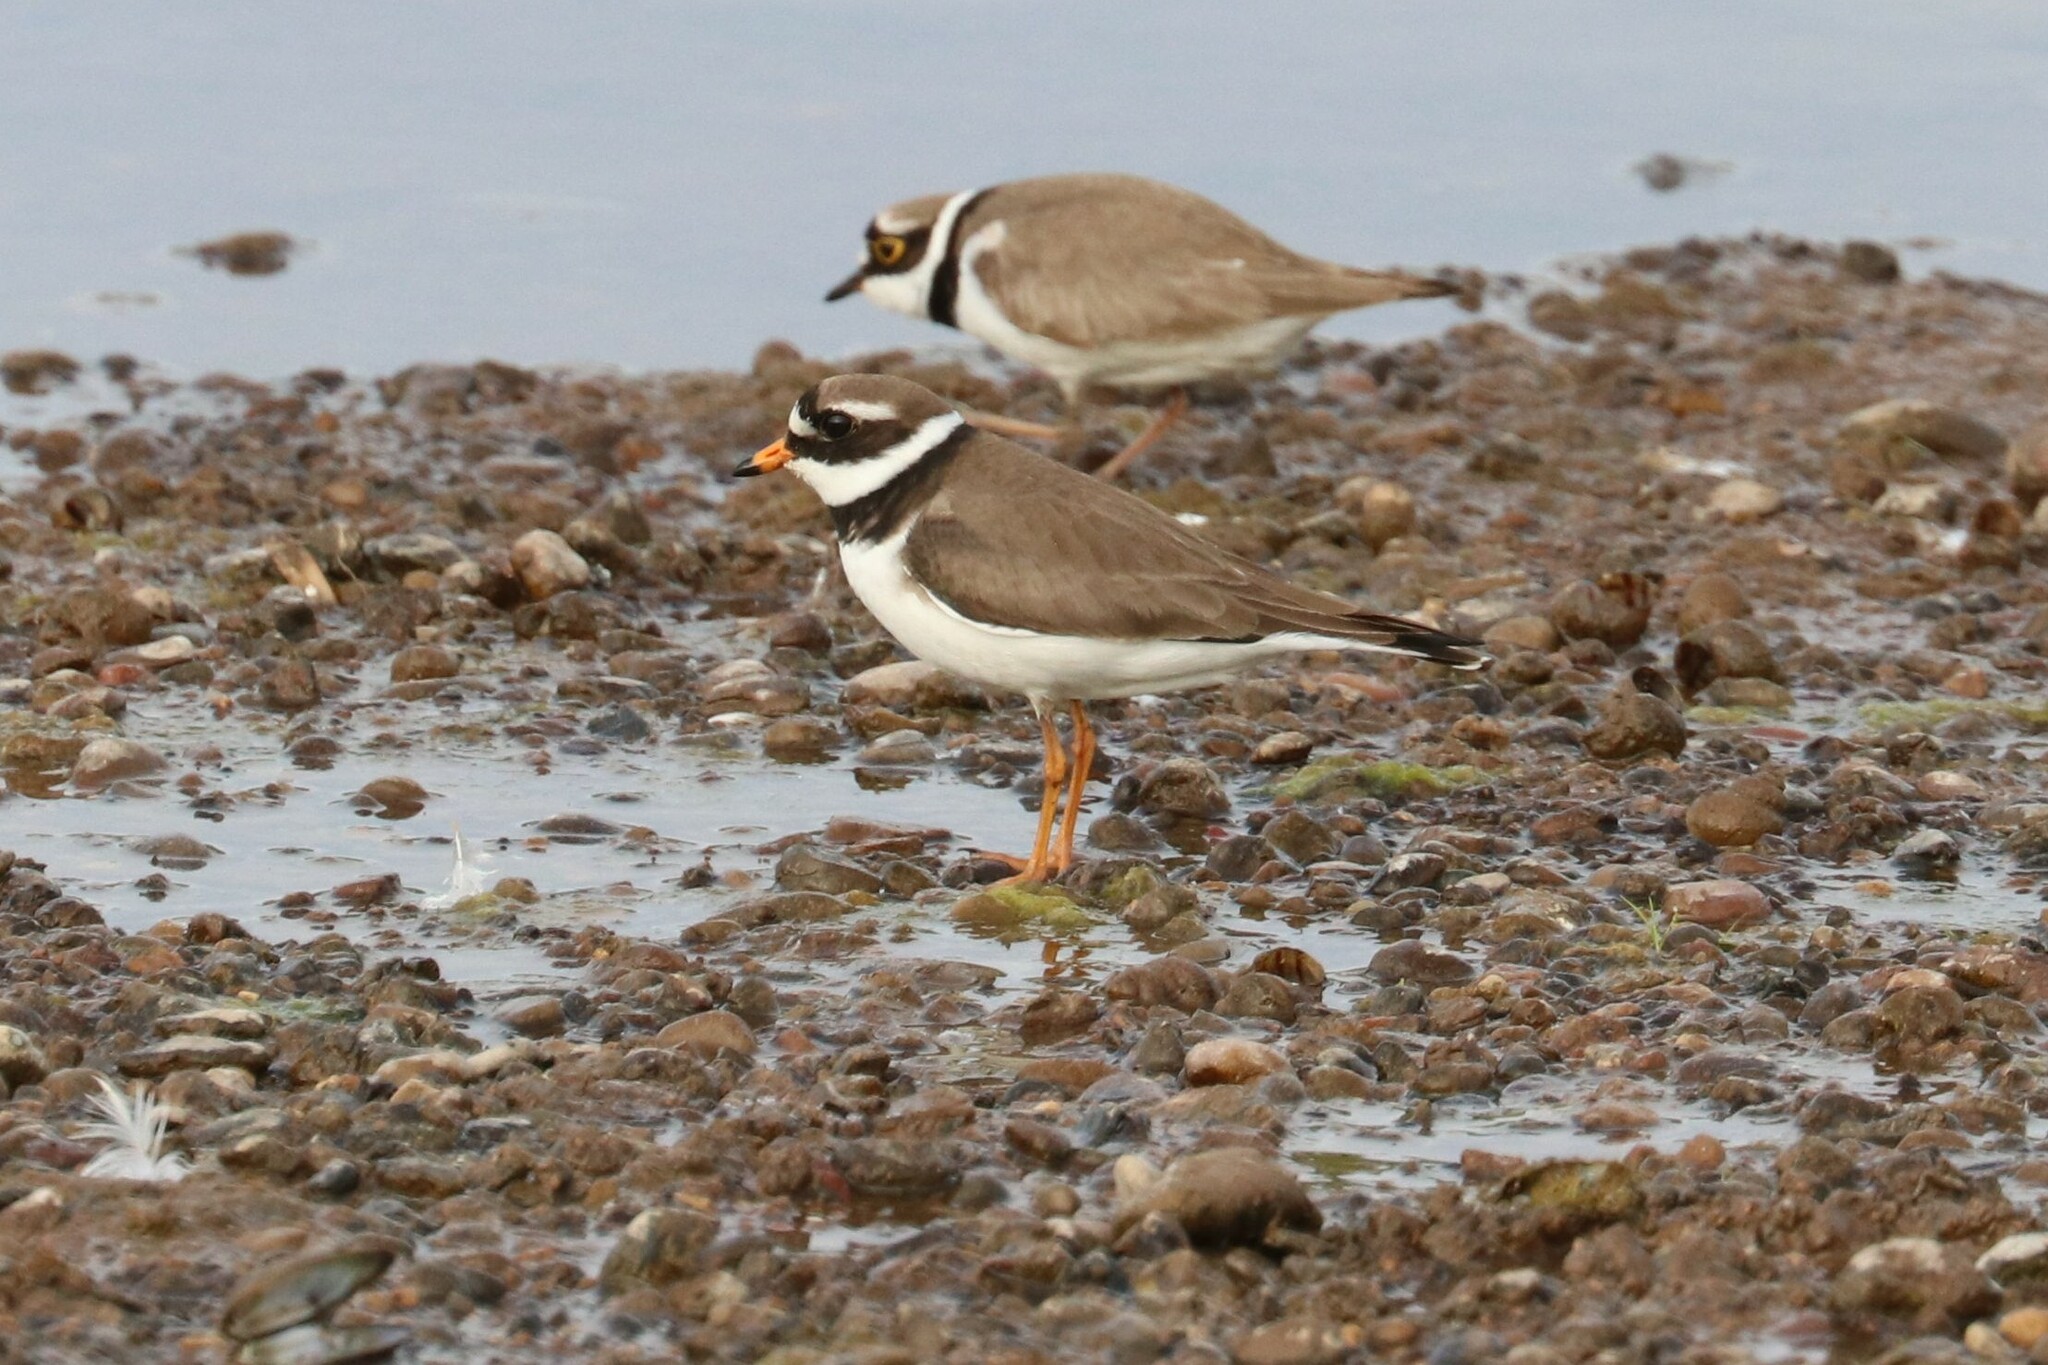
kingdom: Animalia
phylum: Chordata
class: Aves
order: Charadriiformes
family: Charadriidae
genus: Charadrius
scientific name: Charadrius hiaticula
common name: Common ringed plover
